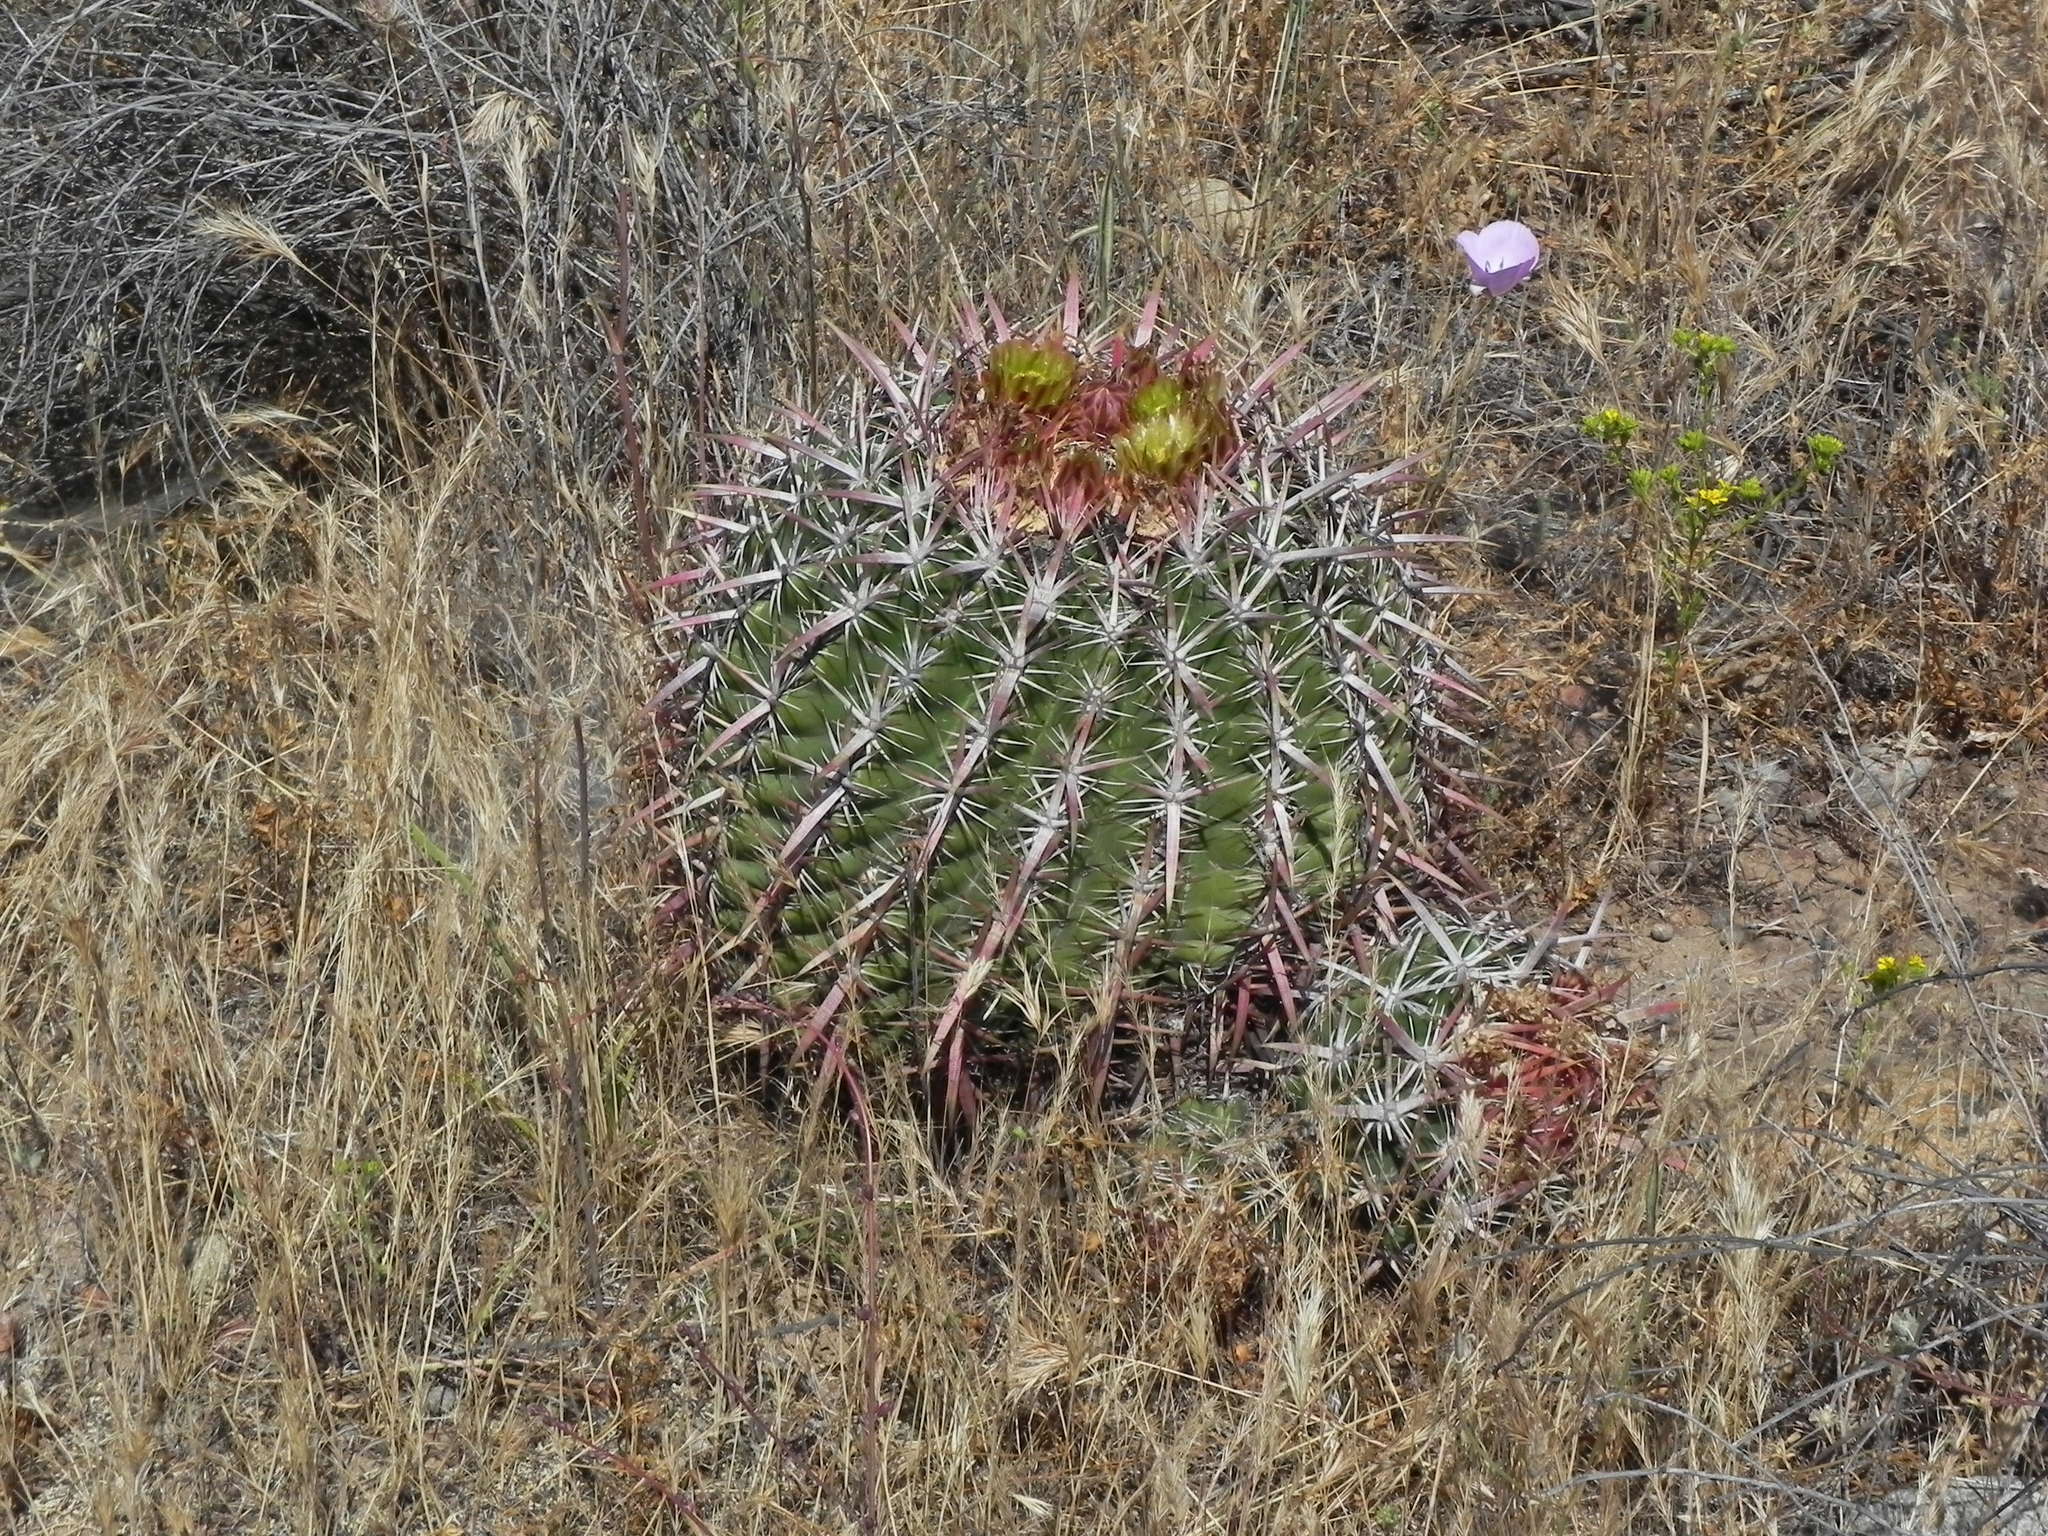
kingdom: Plantae
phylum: Tracheophyta
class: Magnoliopsida
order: Caryophyllales
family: Cactaceae
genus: Ferocactus
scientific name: Ferocactus viridescens
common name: San diego barrel cactus
